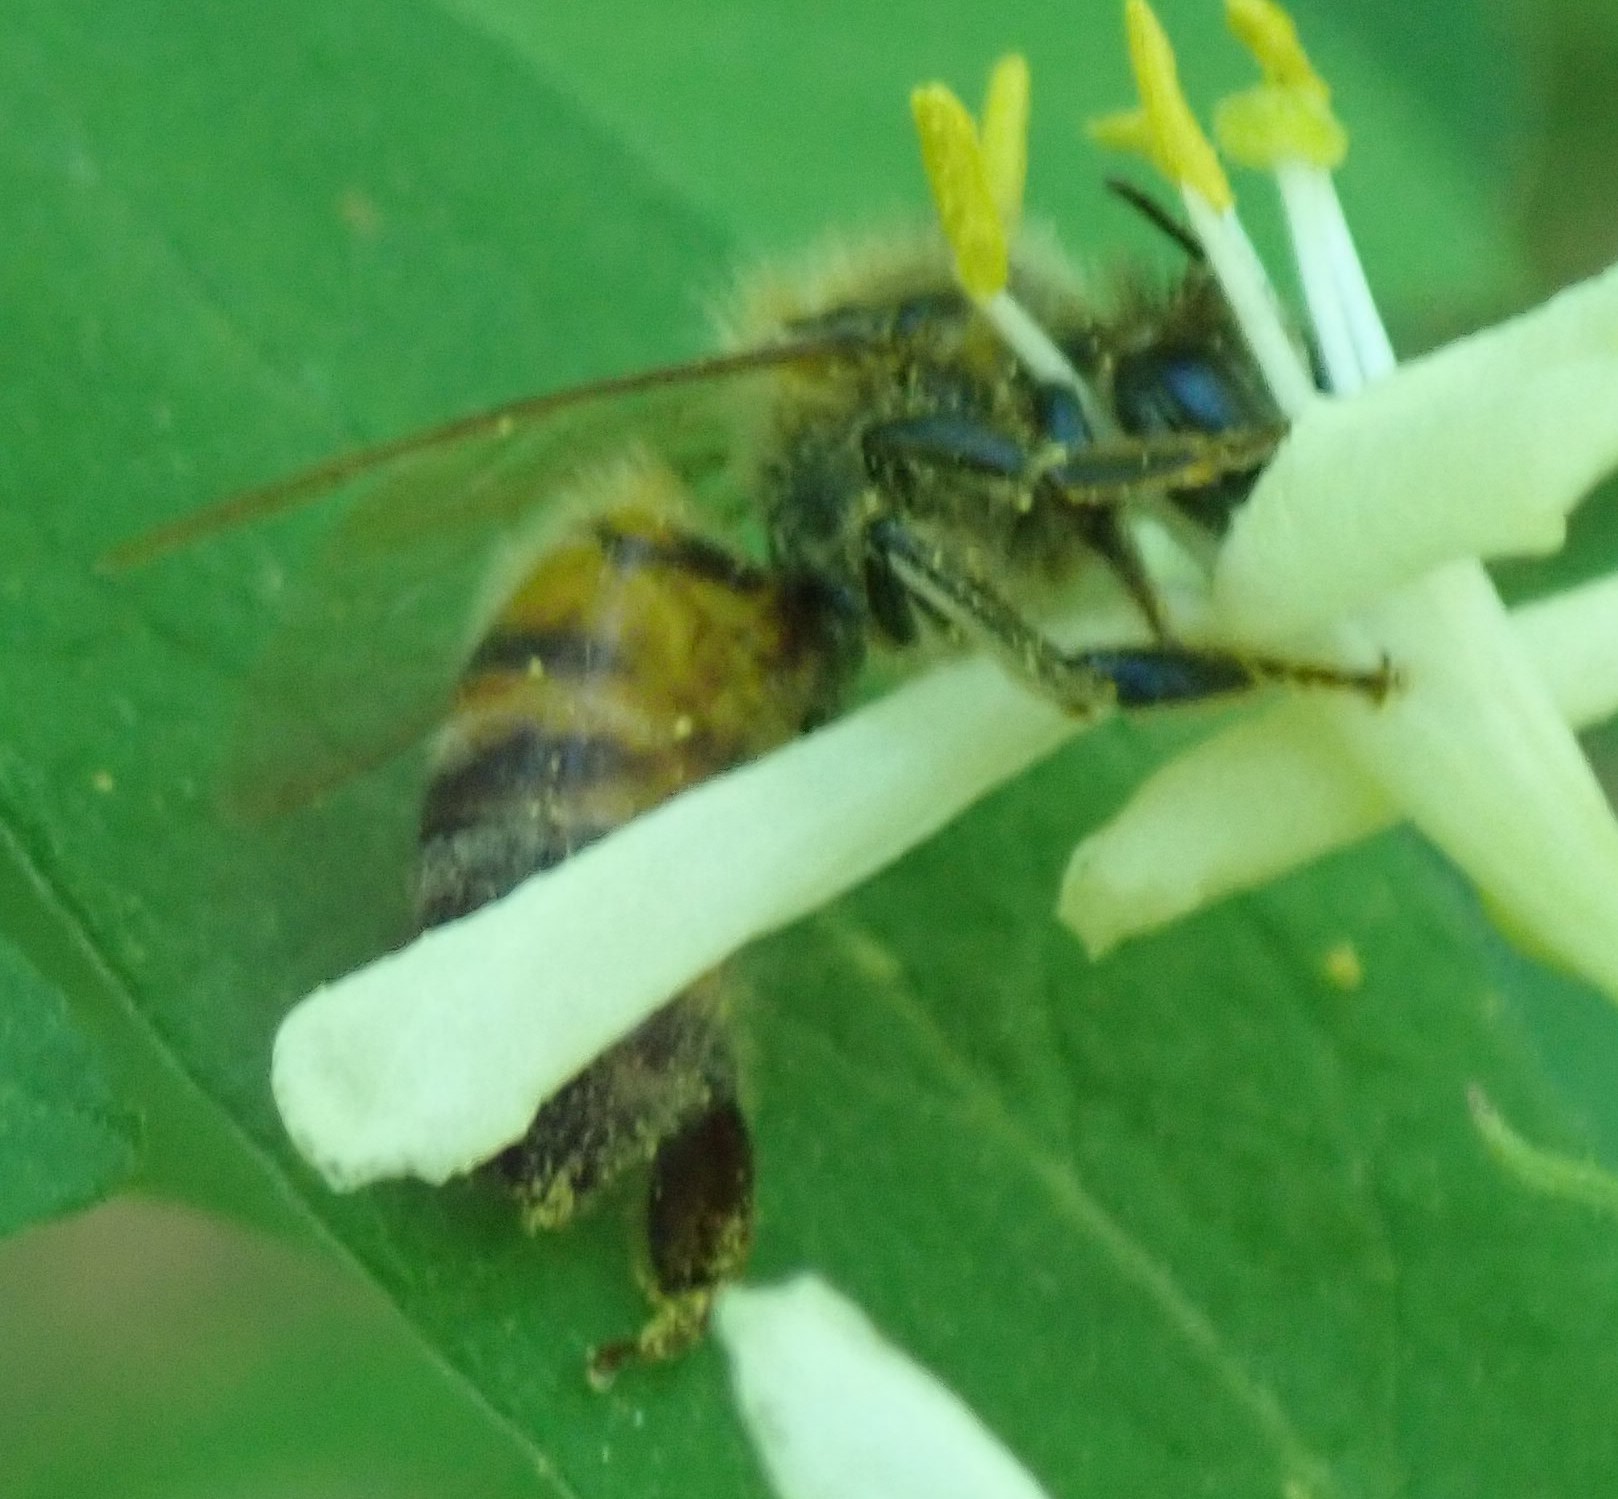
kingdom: Animalia
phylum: Arthropoda
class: Insecta
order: Hymenoptera
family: Apidae
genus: Apis
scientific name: Apis mellifera
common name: Honey bee
